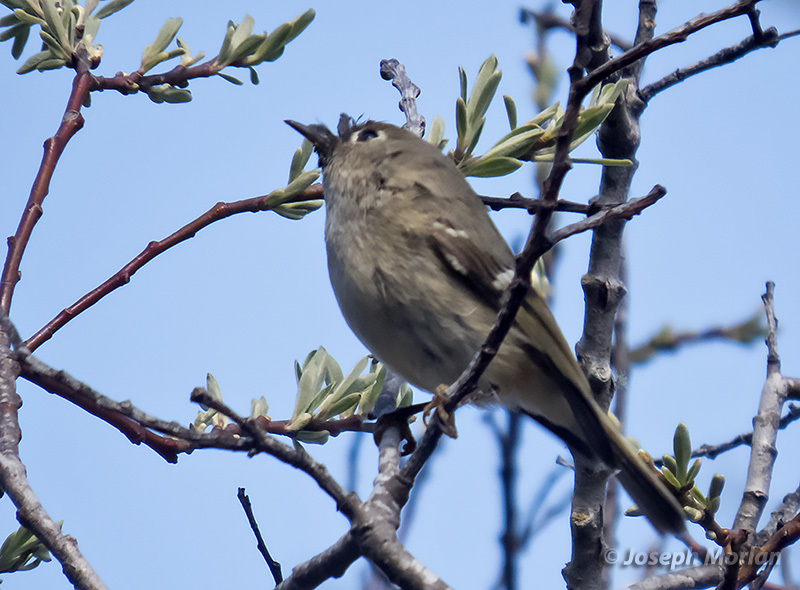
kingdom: Animalia
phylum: Chordata
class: Aves
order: Passeriformes
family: Regulidae
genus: Regulus
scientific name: Regulus calendula
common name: Ruby-crowned kinglet
